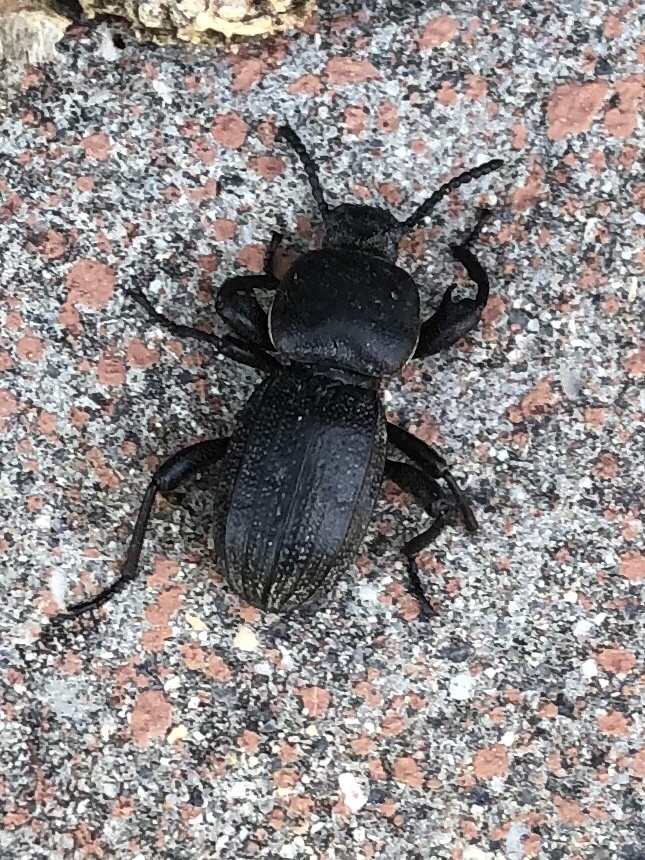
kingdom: Animalia
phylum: Arthropoda
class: Insecta
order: Coleoptera
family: Tenebrionidae
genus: Scaurus
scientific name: Scaurus uncinus
